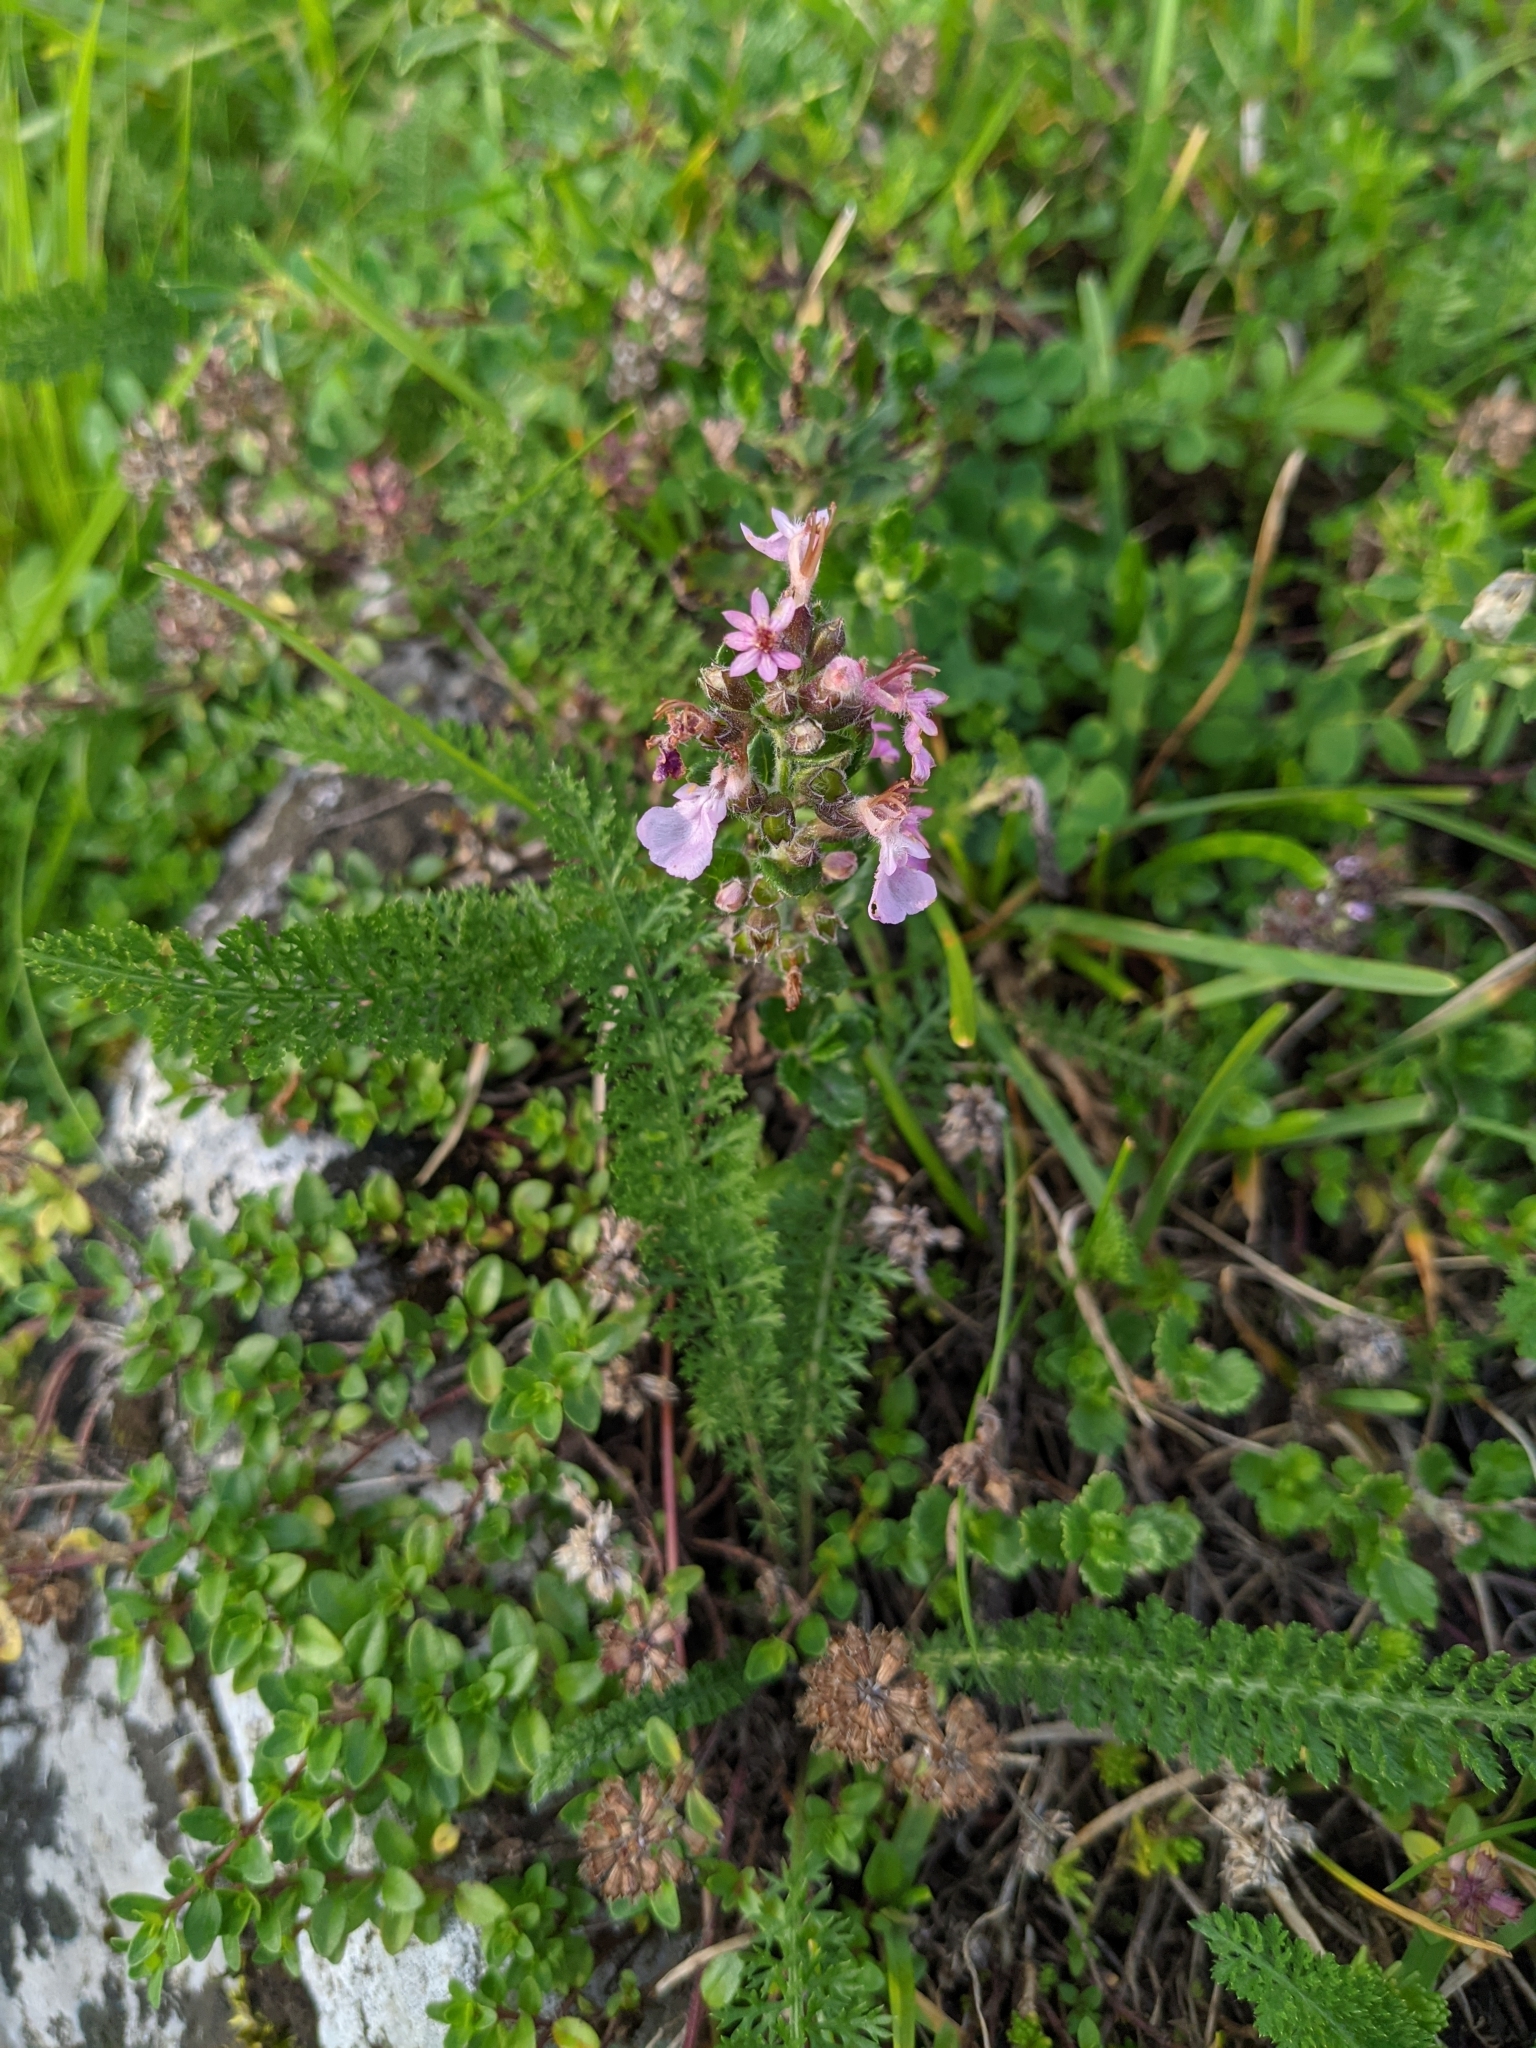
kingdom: Plantae
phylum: Tracheophyta
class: Magnoliopsida
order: Lamiales
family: Lamiaceae
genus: Teucrium
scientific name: Teucrium chamaedrys
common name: Wall germander
